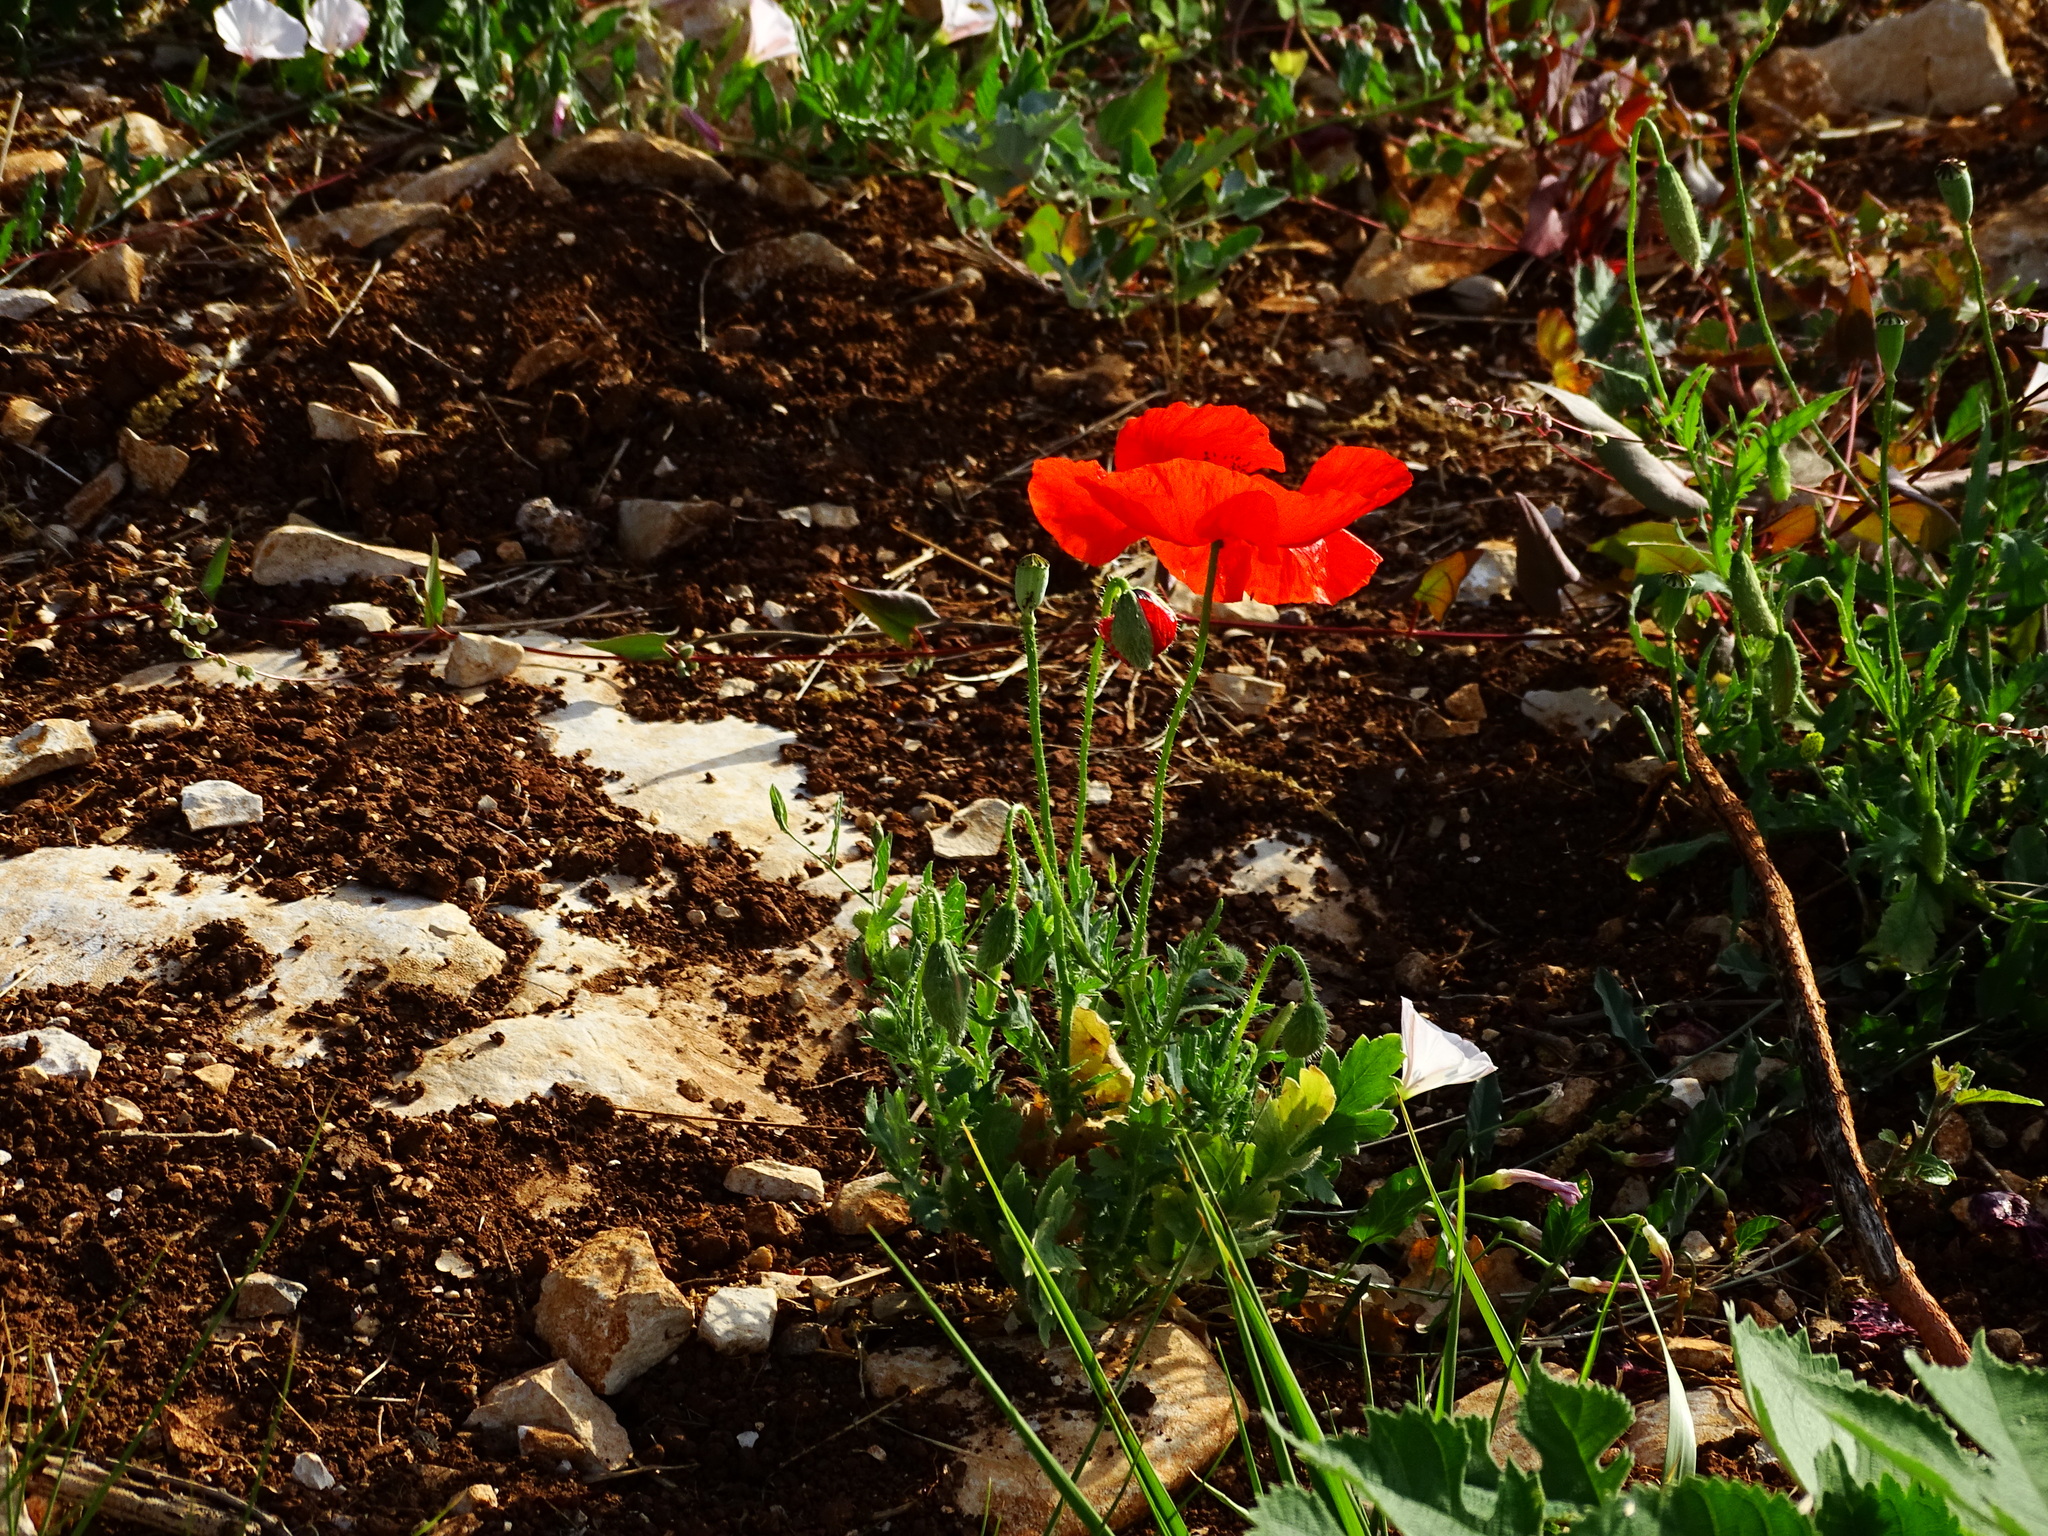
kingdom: Plantae
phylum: Tracheophyta
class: Magnoliopsida
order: Ranunculales
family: Papaveraceae
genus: Papaver
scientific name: Papaver rhoeas
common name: Corn poppy
